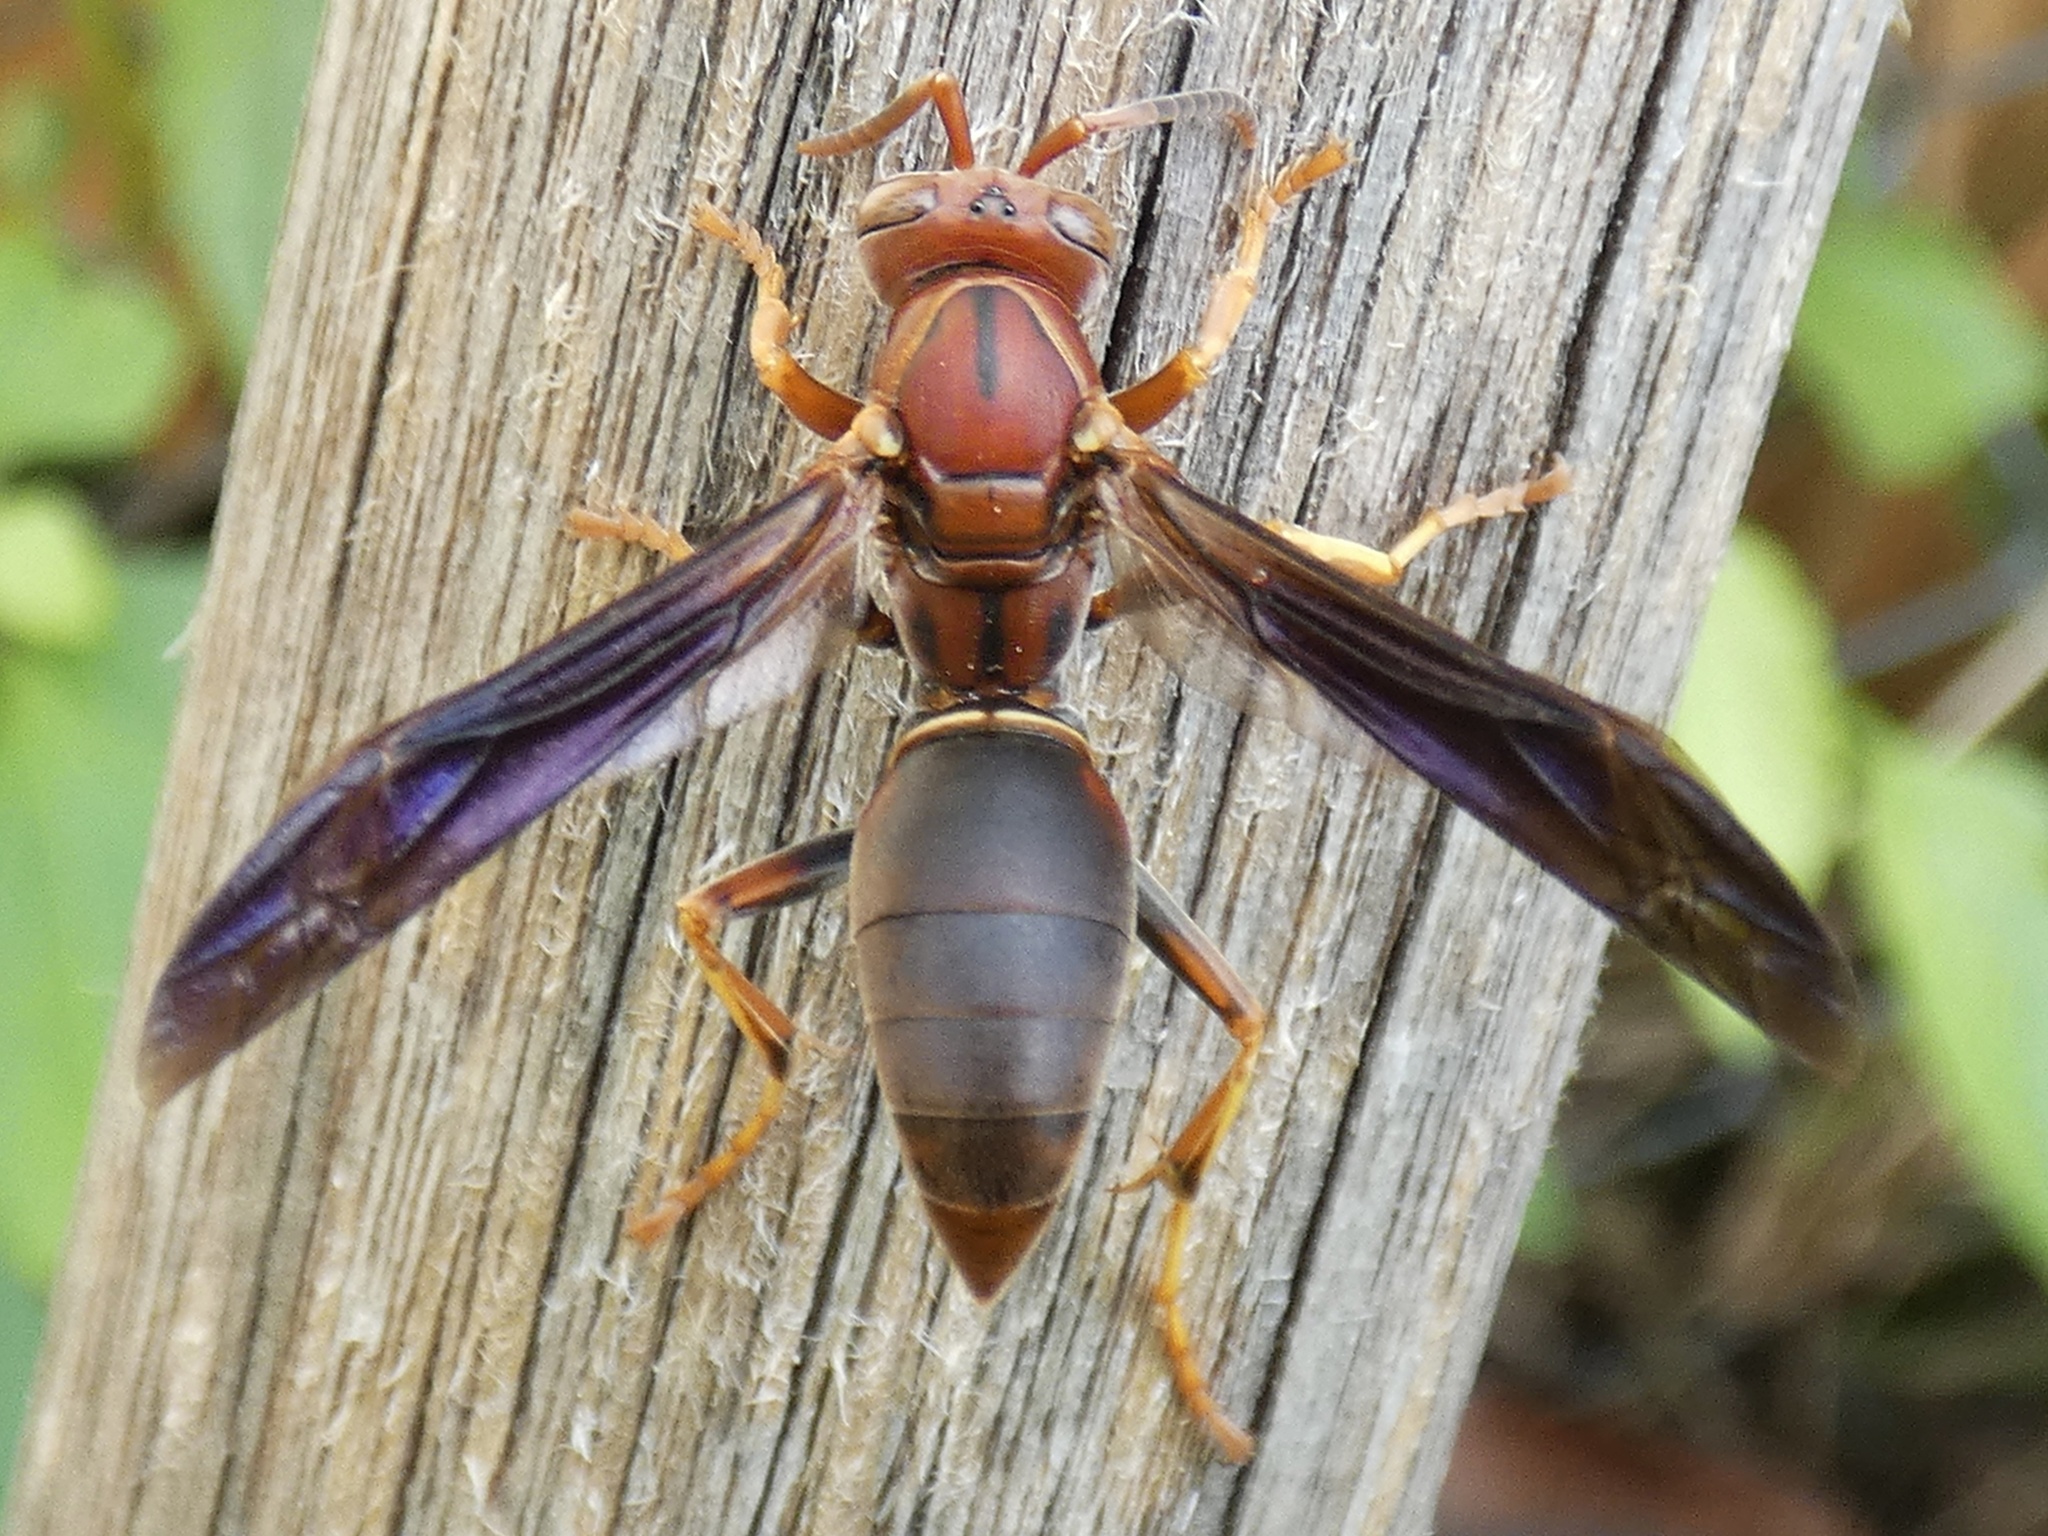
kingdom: Animalia
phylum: Arthropoda
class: Insecta
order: Hymenoptera
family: Eumenidae
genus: Polistes
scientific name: Polistes fuscatus
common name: Dark paper wasp
